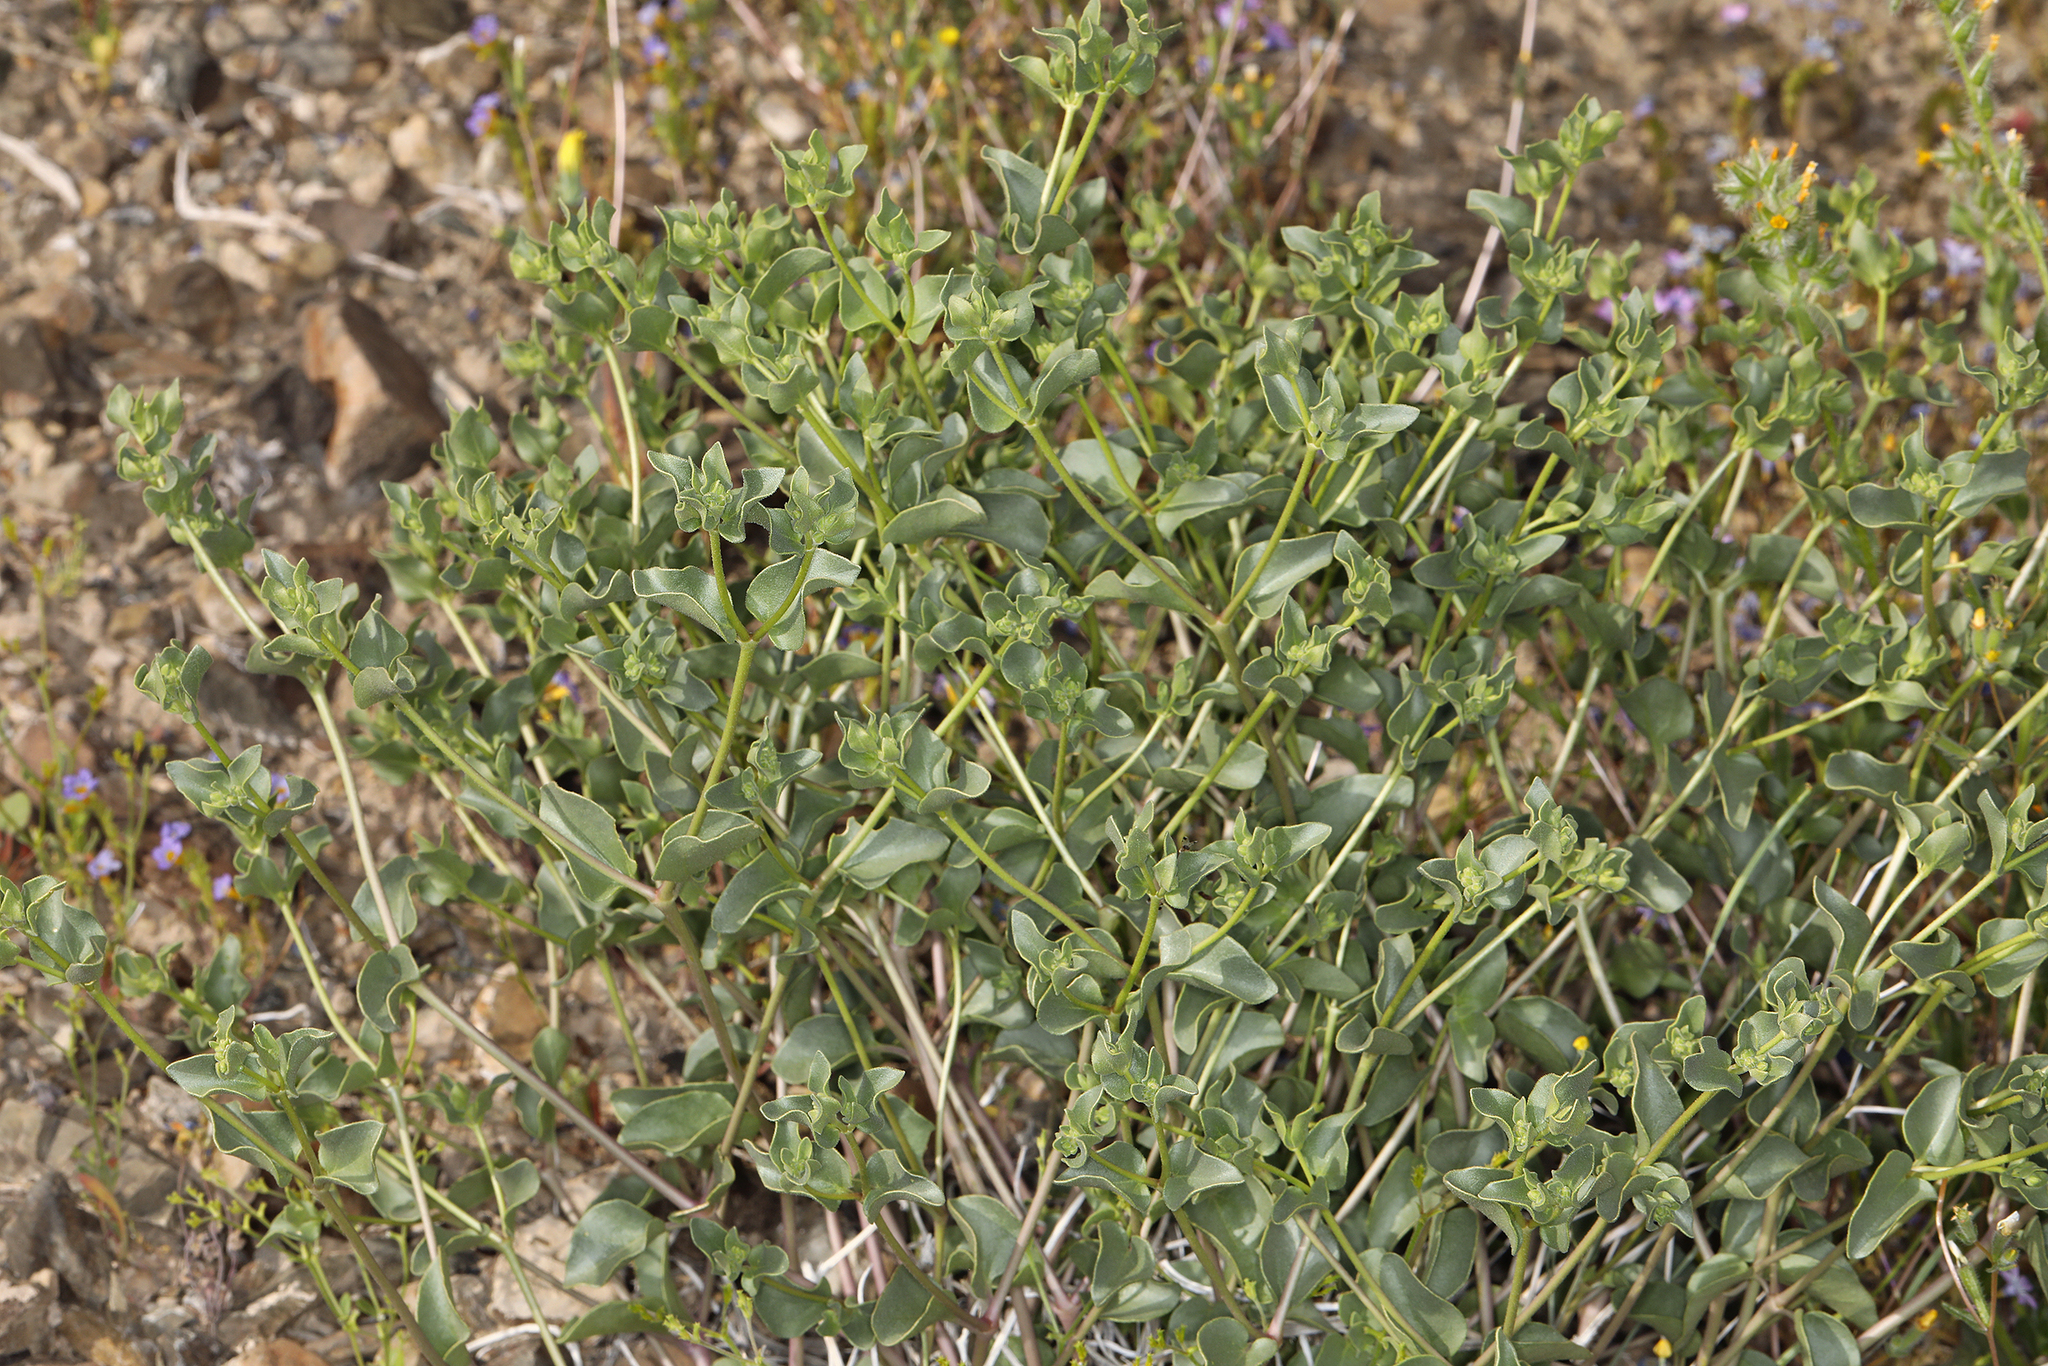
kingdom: Plantae
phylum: Tracheophyta
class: Magnoliopsida
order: Caryophyllales
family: Nyctaginaceae
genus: Mirabilis
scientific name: Mirabilis laevis
